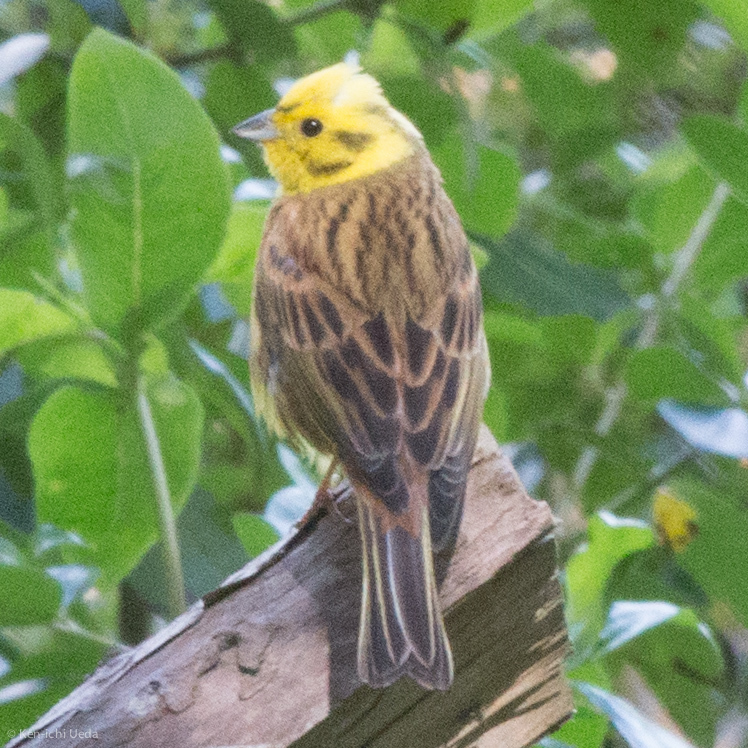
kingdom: Animalia
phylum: Chordata
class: Aves
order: Passeriformes
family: Emberizidae
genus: Emberiza
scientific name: Emberiza citrinella
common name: Yellowhammer
